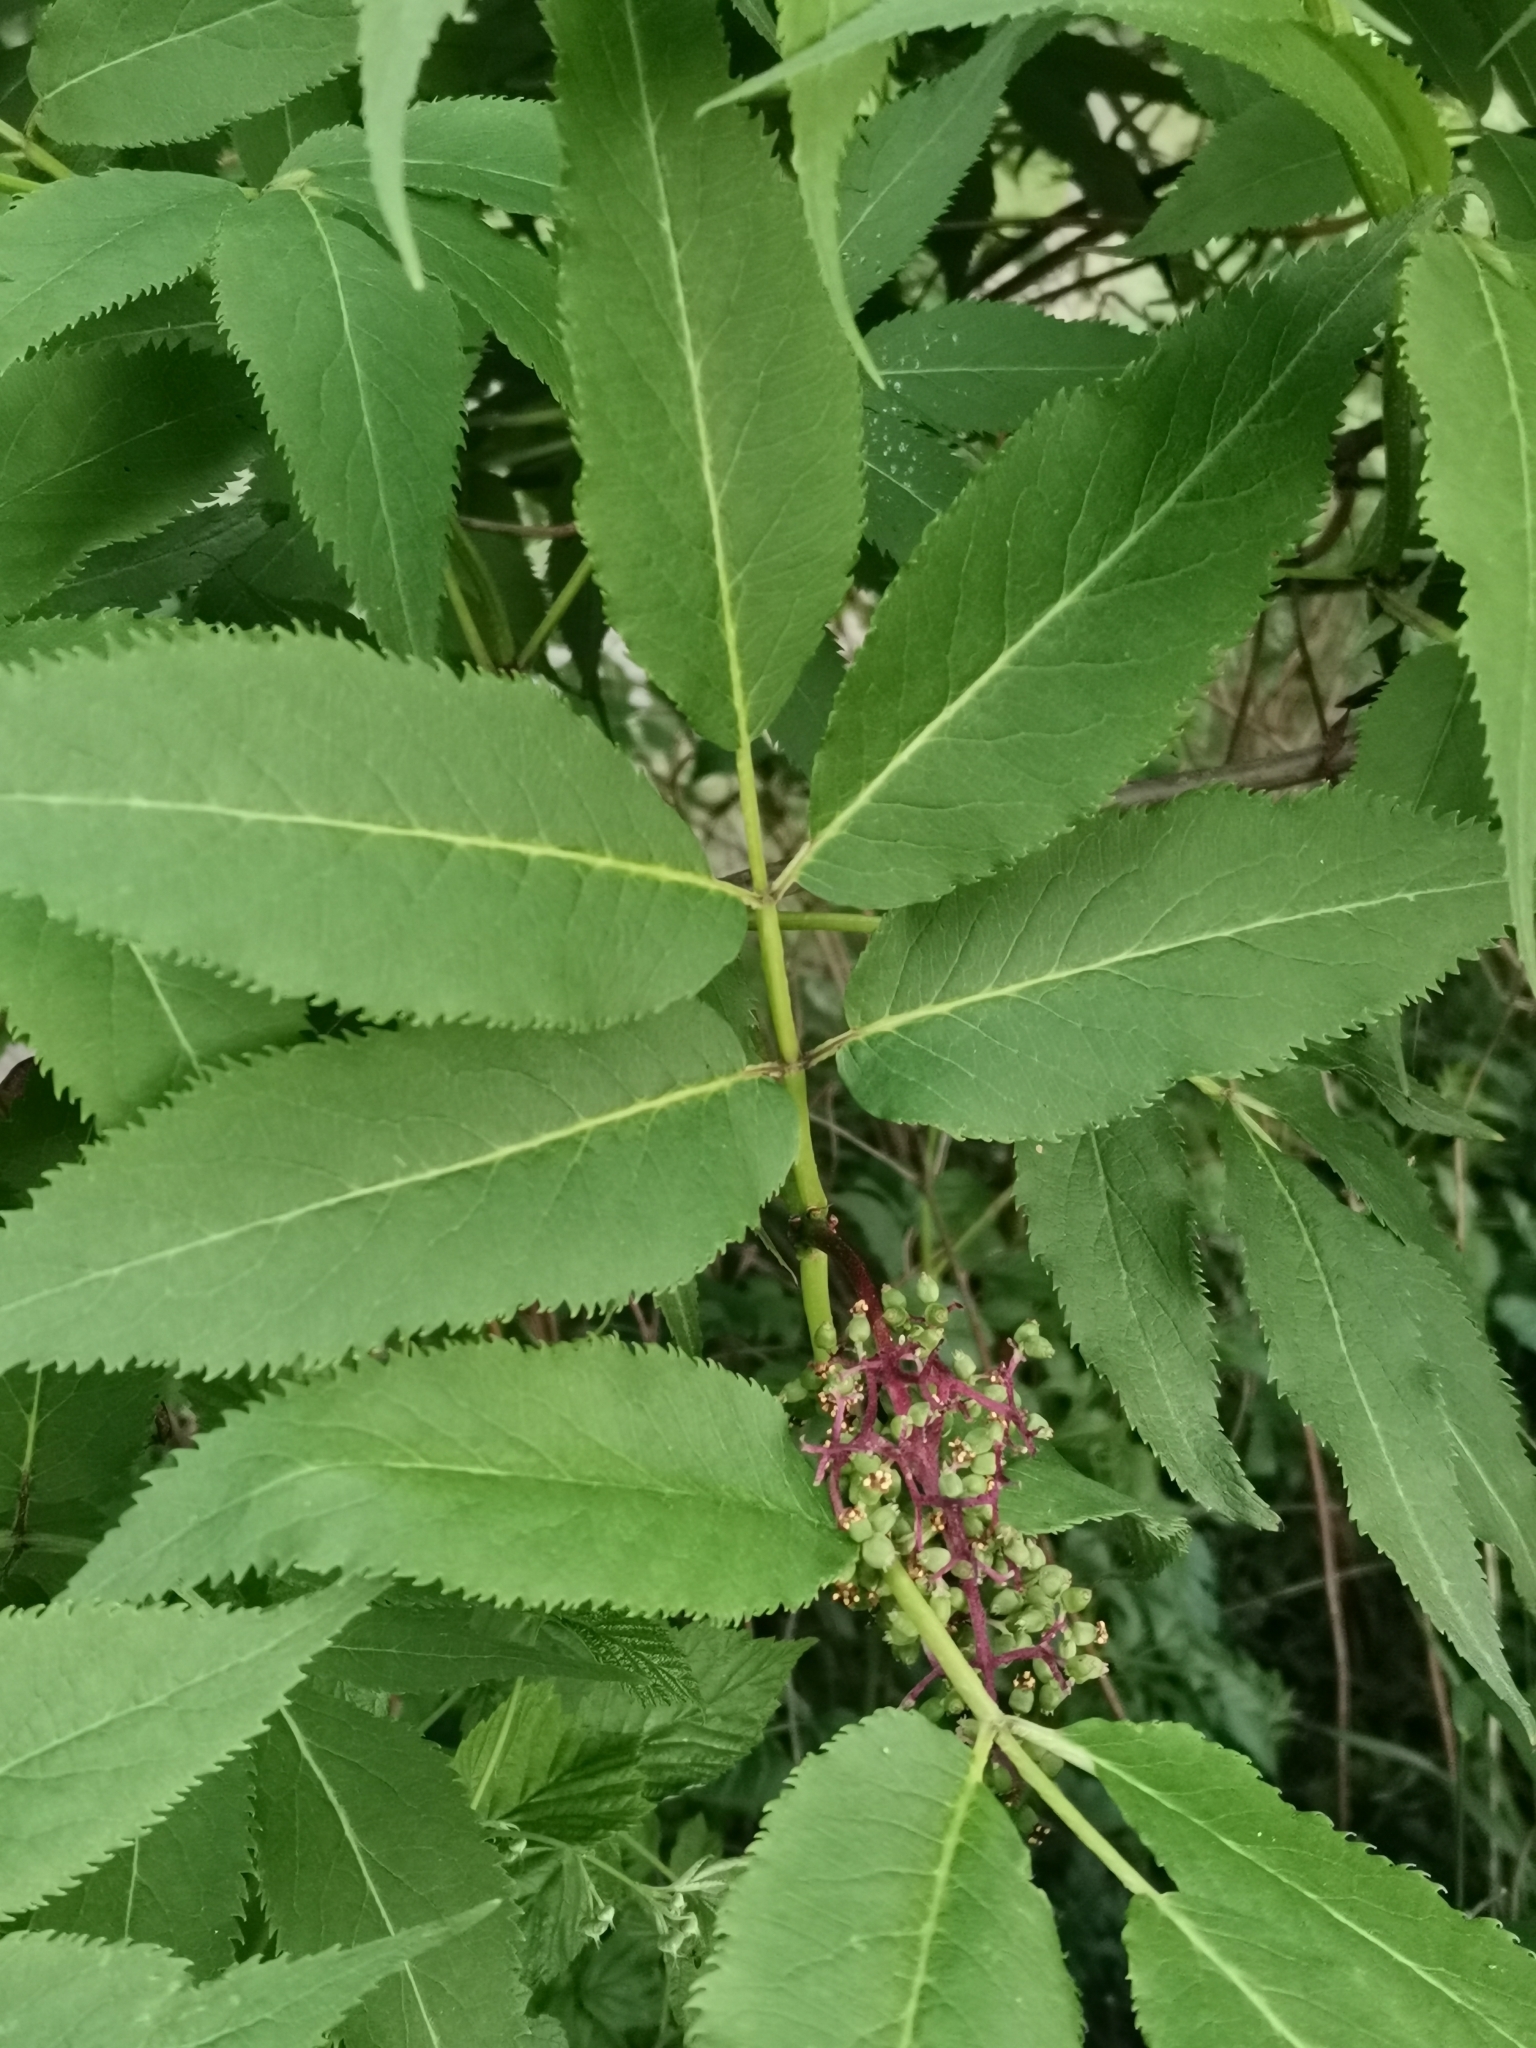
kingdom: Plantae
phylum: Tracheophyta
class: Magnoliopsida
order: Dipsacales
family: Viburnaceae
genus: Sambucus
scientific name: Sambucus racemosa
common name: Red-berried elder
